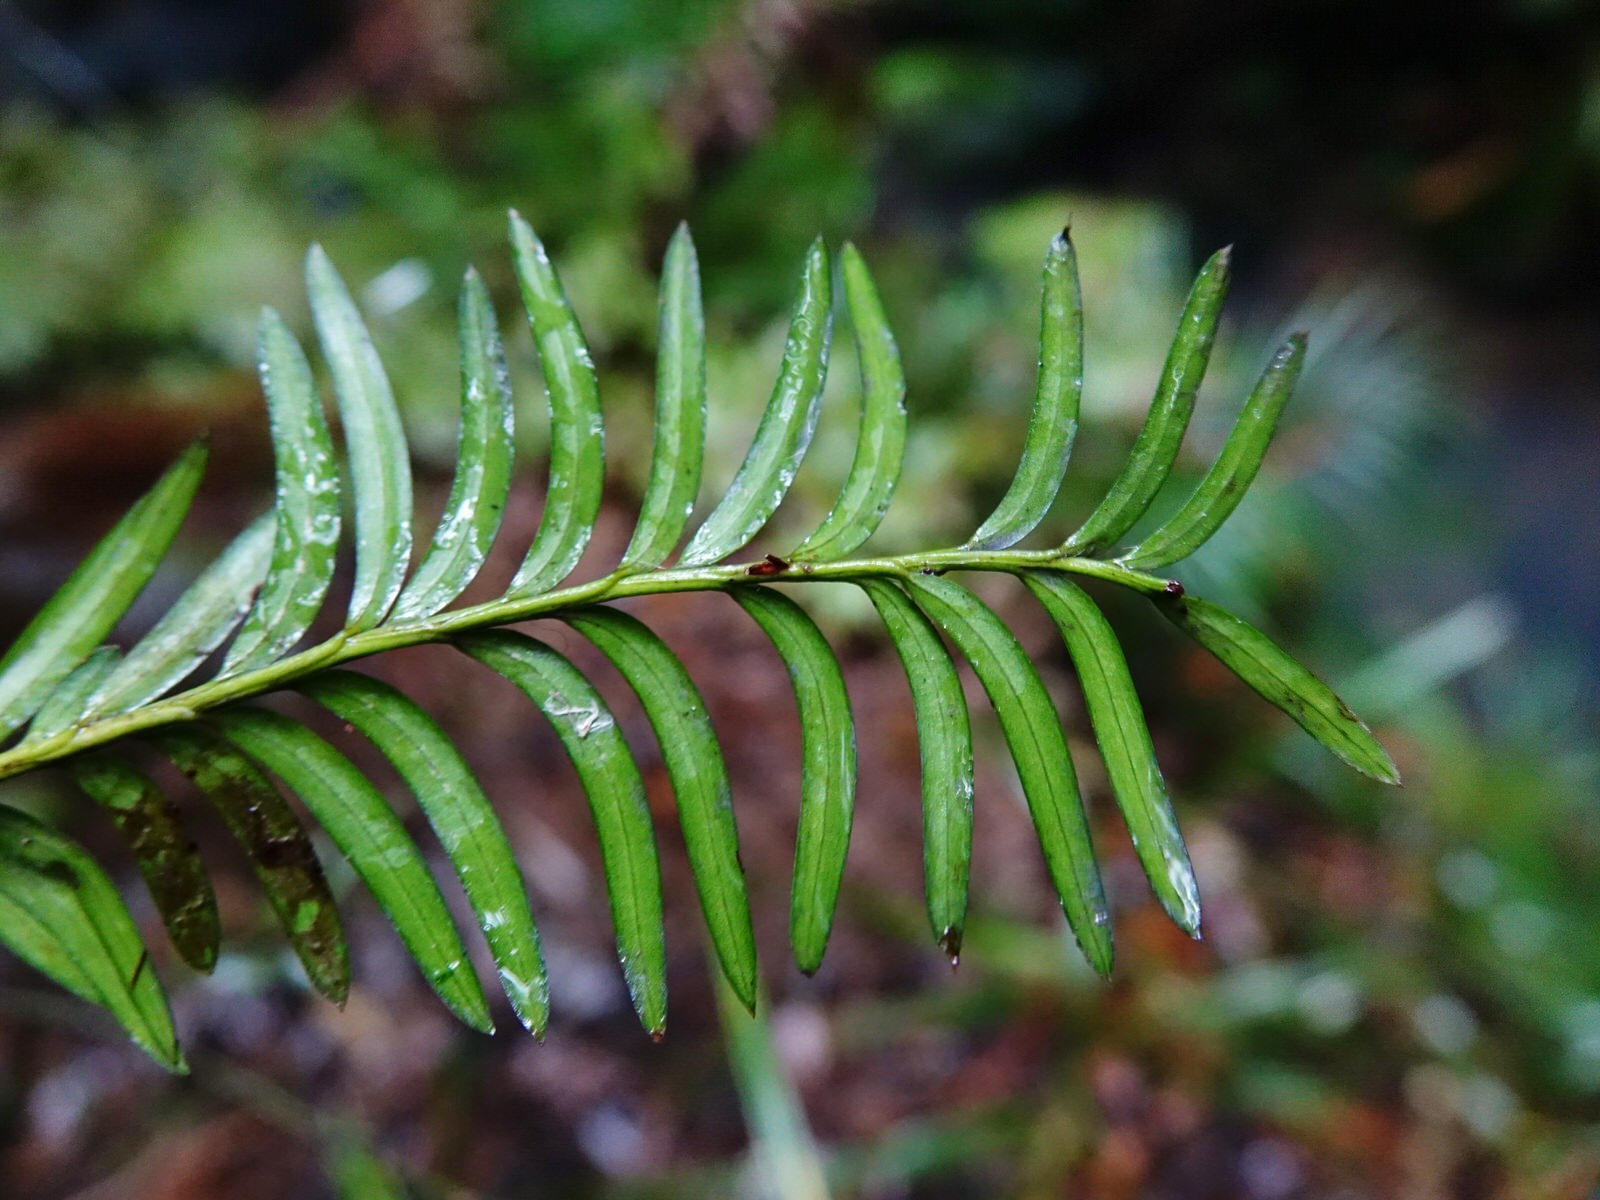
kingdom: Plantae
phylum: Tracheophyta
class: Pinopsida
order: Pinales
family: Podocarpaceae
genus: Prumnopitys
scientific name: Prumnopitys ferruginea
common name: Brown pine
